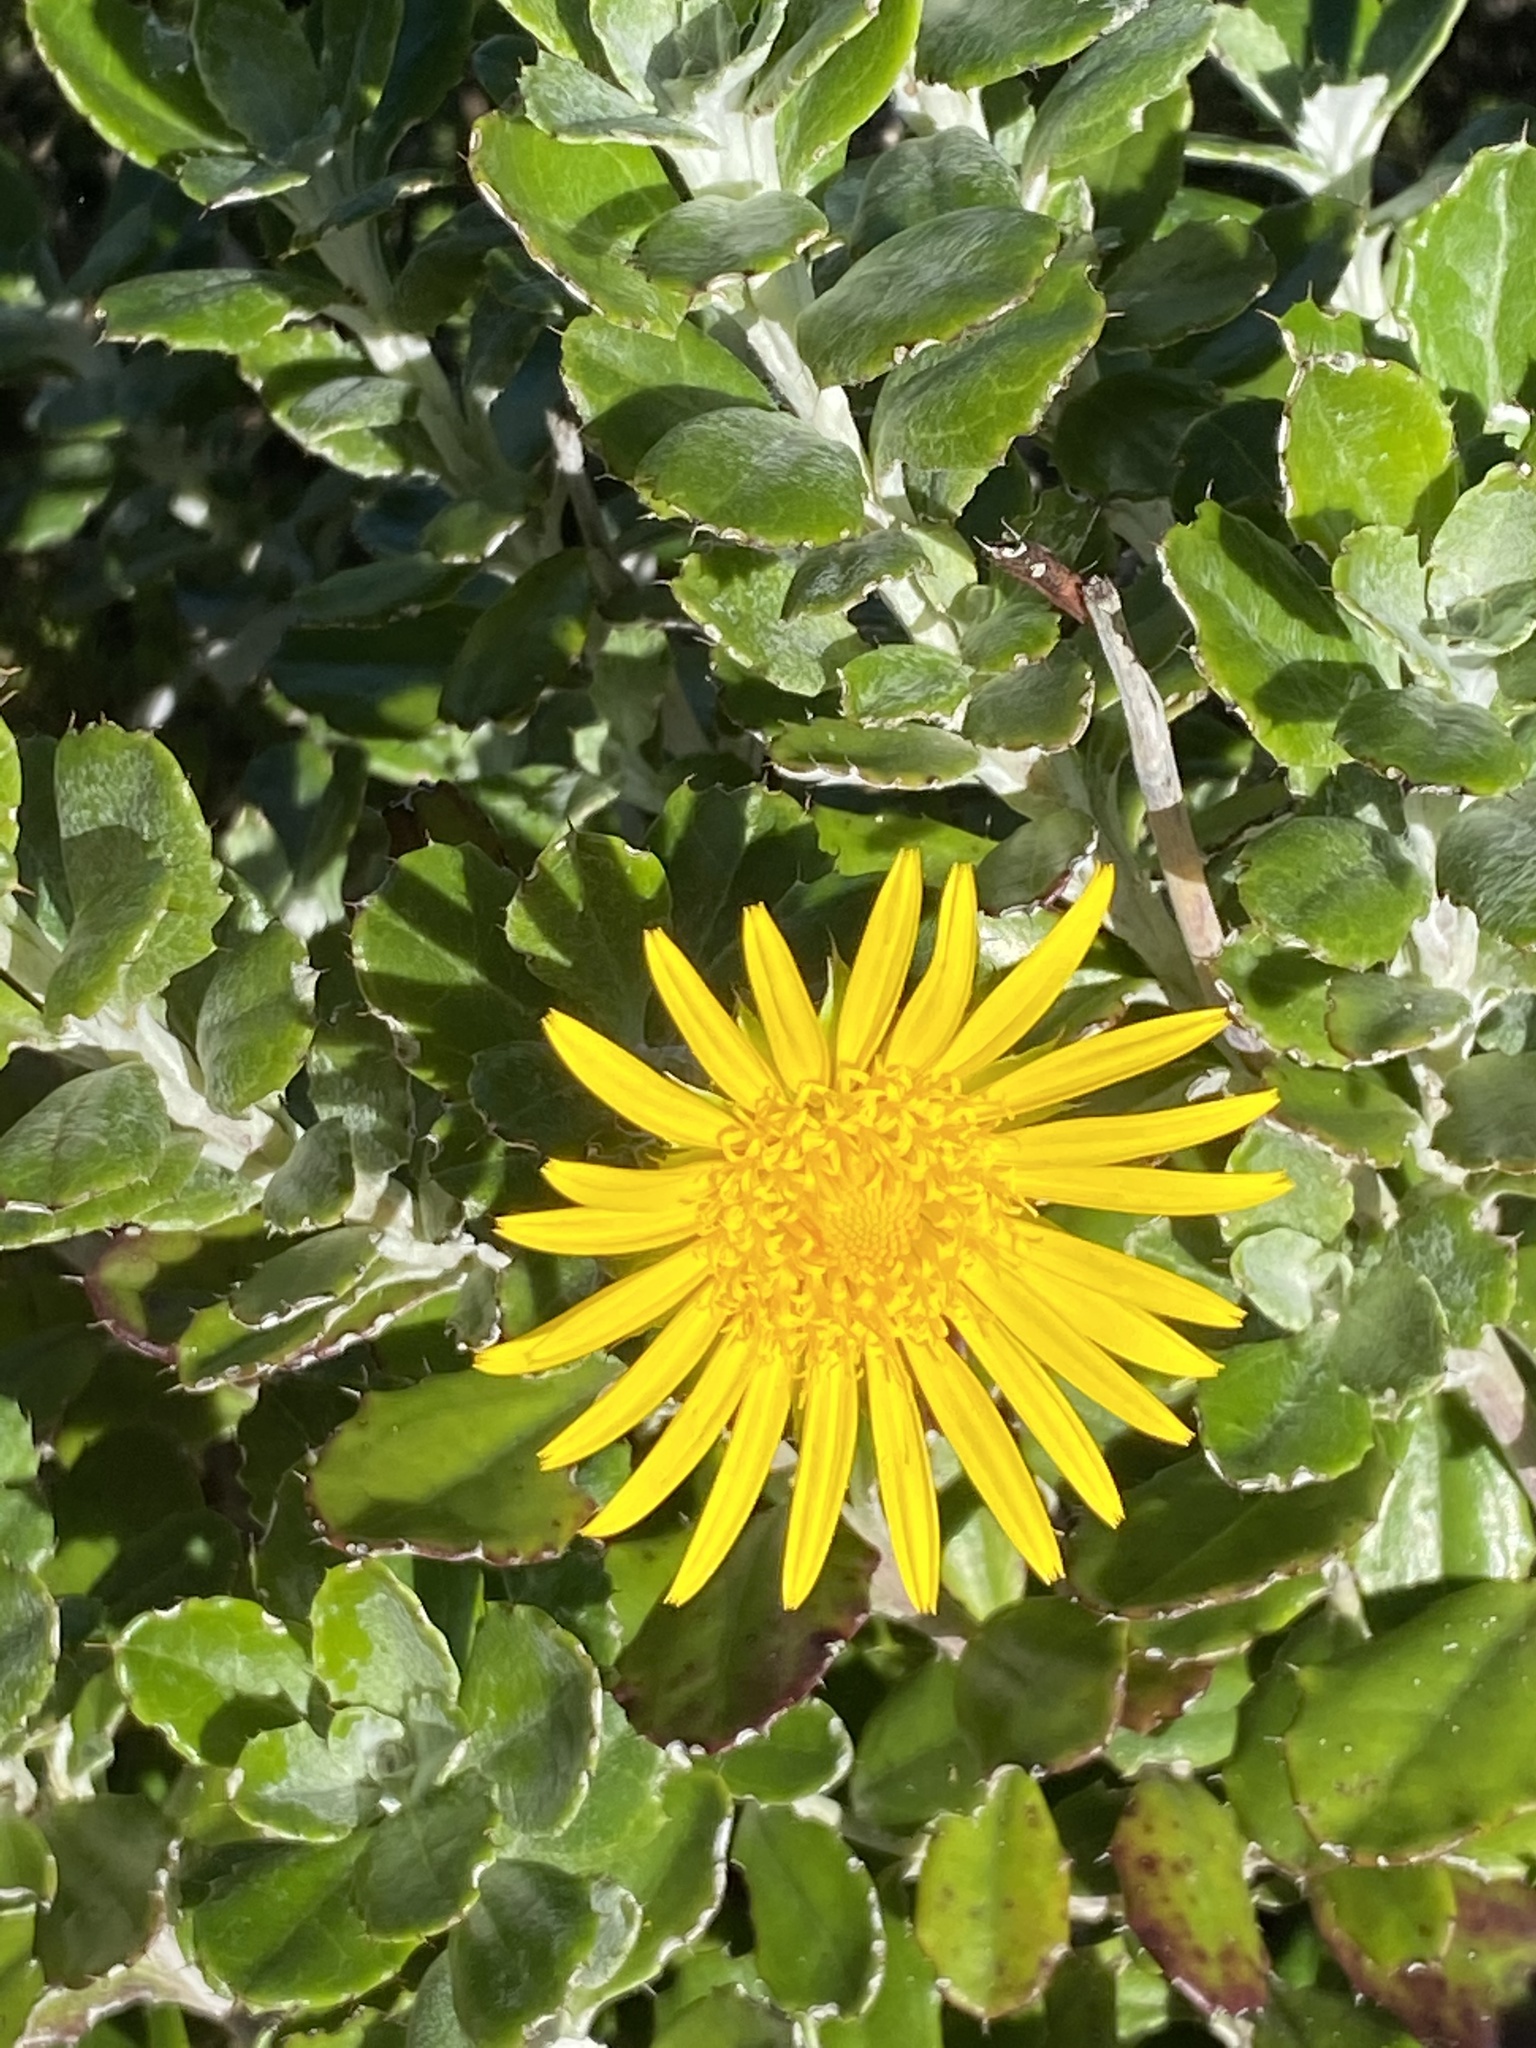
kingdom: Plantae
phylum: Tracheophyta
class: Magnoliopsida
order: Asterales
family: Asteraceae
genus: Berkheya
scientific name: Berkheya coriacea
